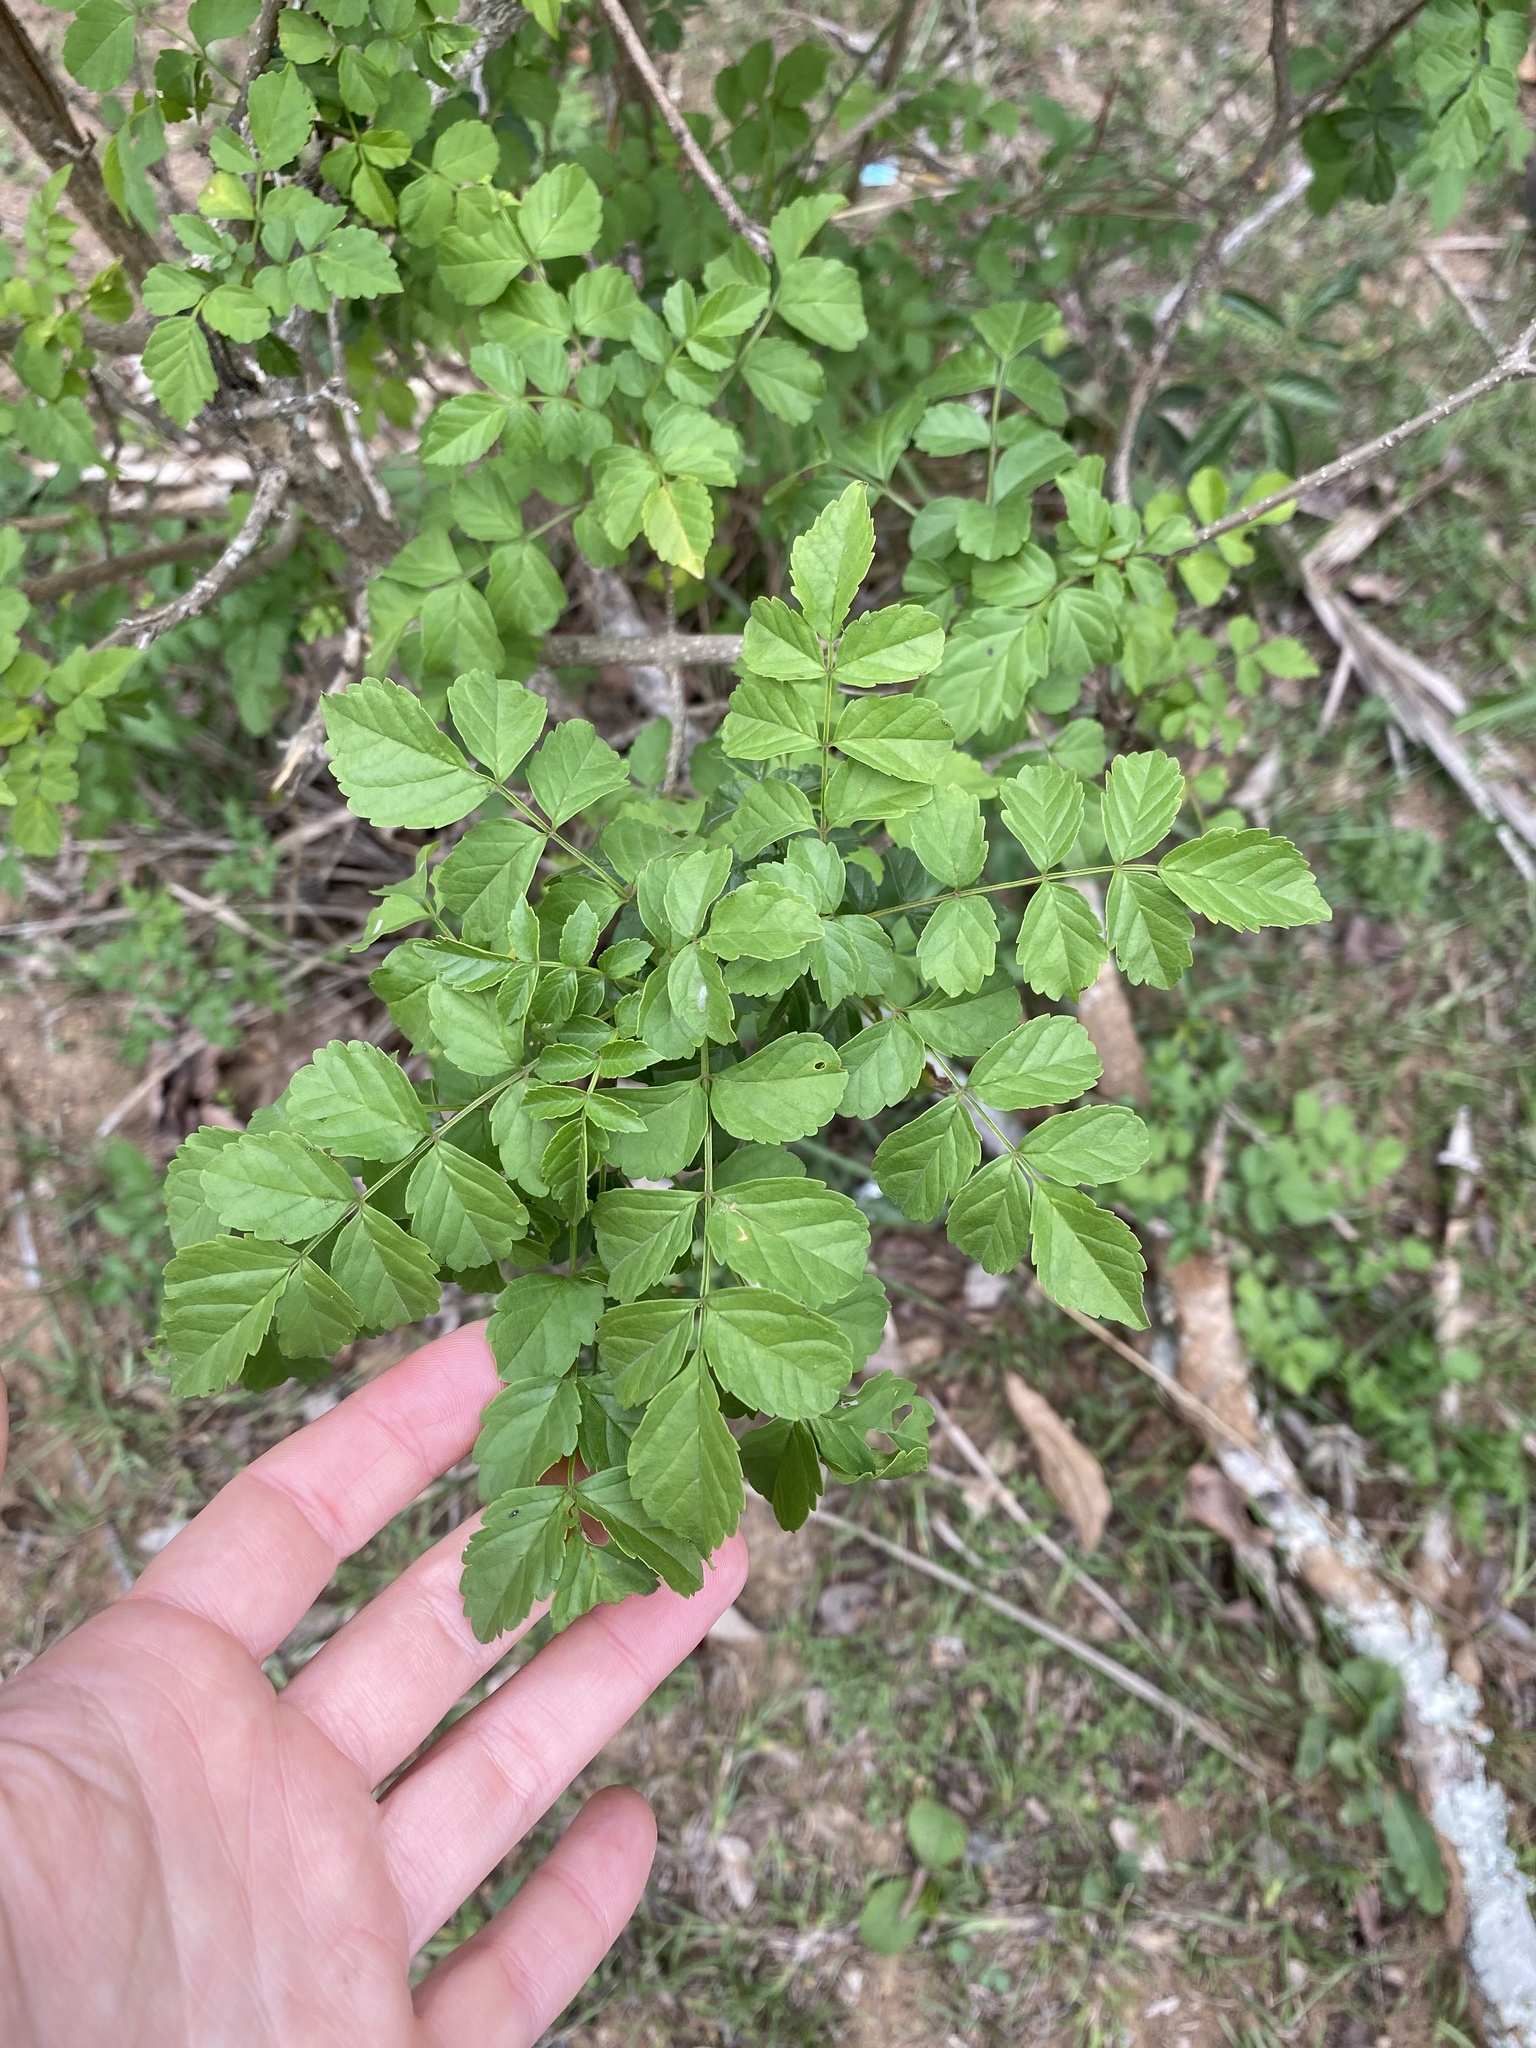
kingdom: Plantae
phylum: Tracheophyta
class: Magnoliopsida
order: Lamiales
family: Bignoniaceae
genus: Tecomaria
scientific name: Tecomaria capensis
